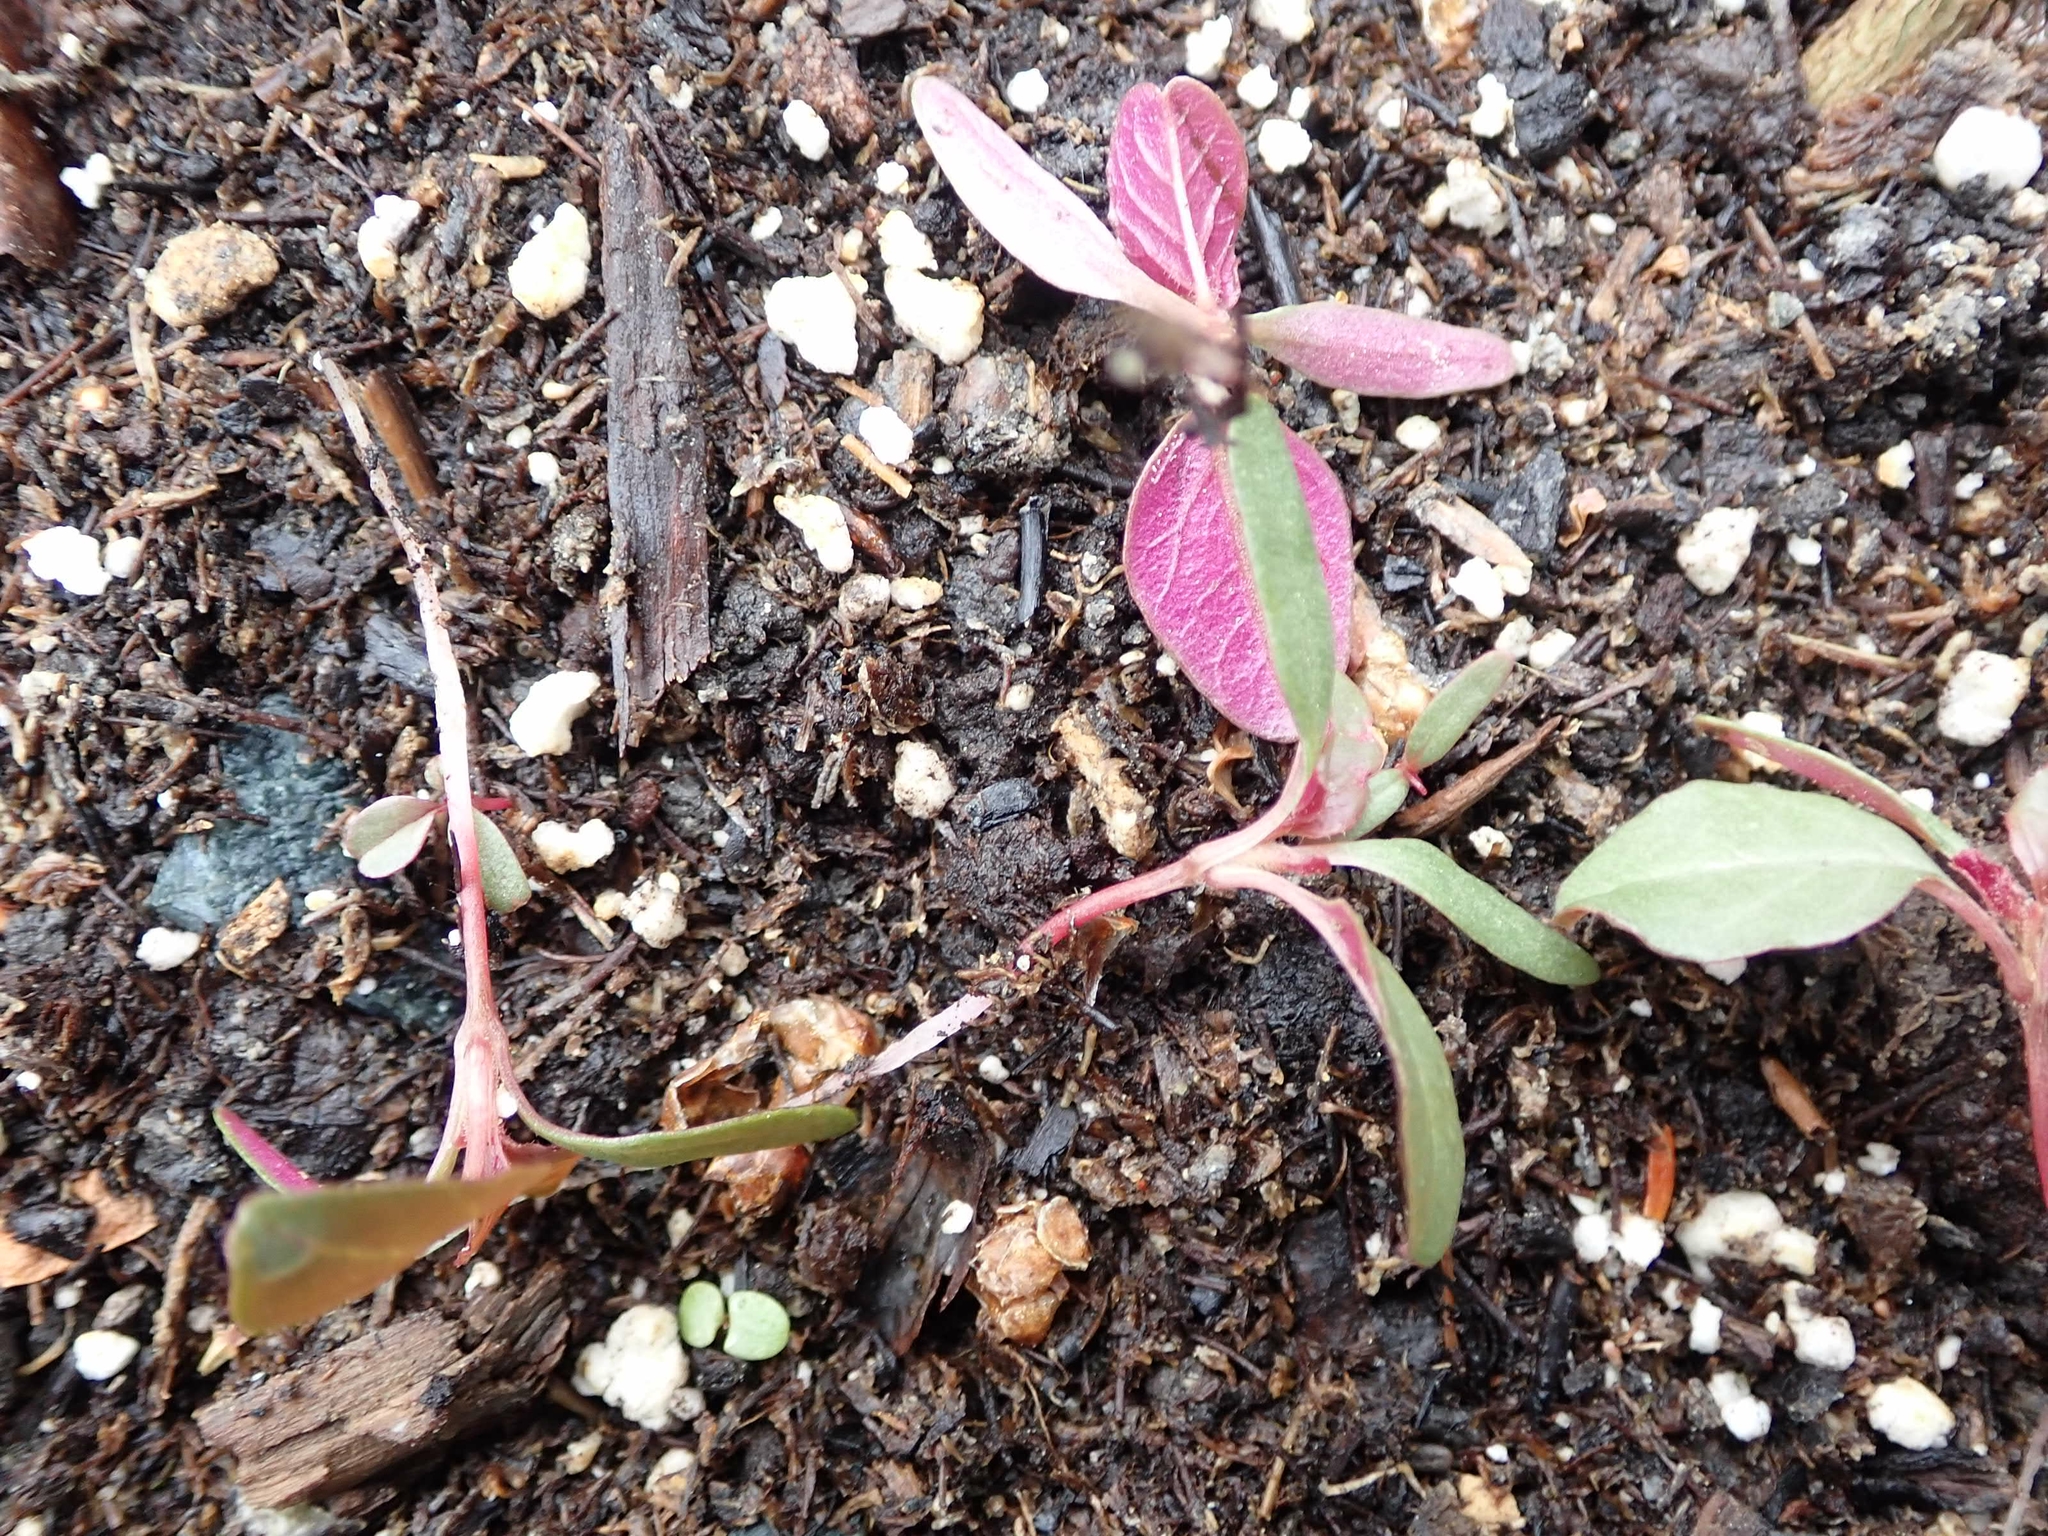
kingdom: Plantae
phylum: Tracheophyta
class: Magnoliopsida
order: Caryophyllales
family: Amaranthaceae
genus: Amaranthus
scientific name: Amaranthus retroflexus
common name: Redroot amaranth
